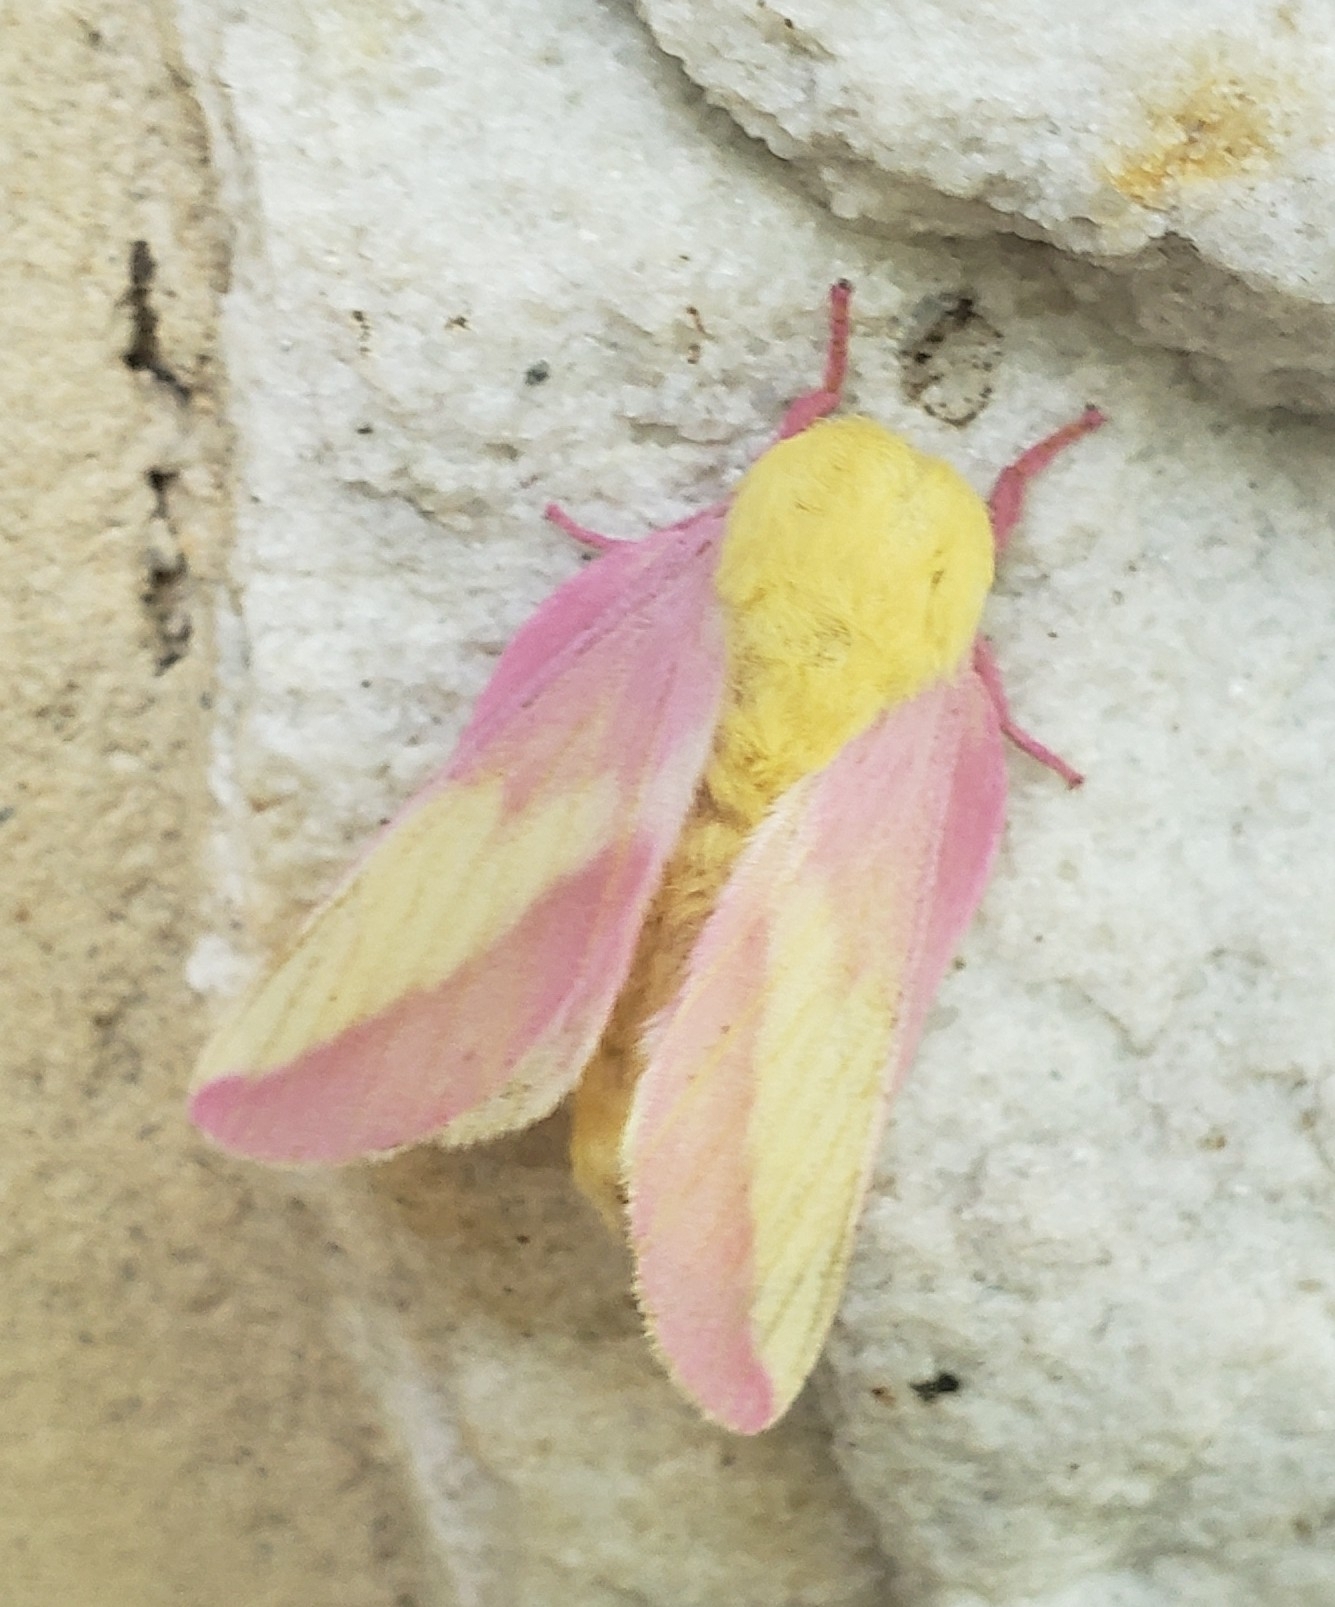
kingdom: Animalia
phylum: Arthropoda
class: Insecta
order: Lepidoptera
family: Saturniidae
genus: Dryocampa
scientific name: Dryocampa rubicunda
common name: Rosy maple moth
